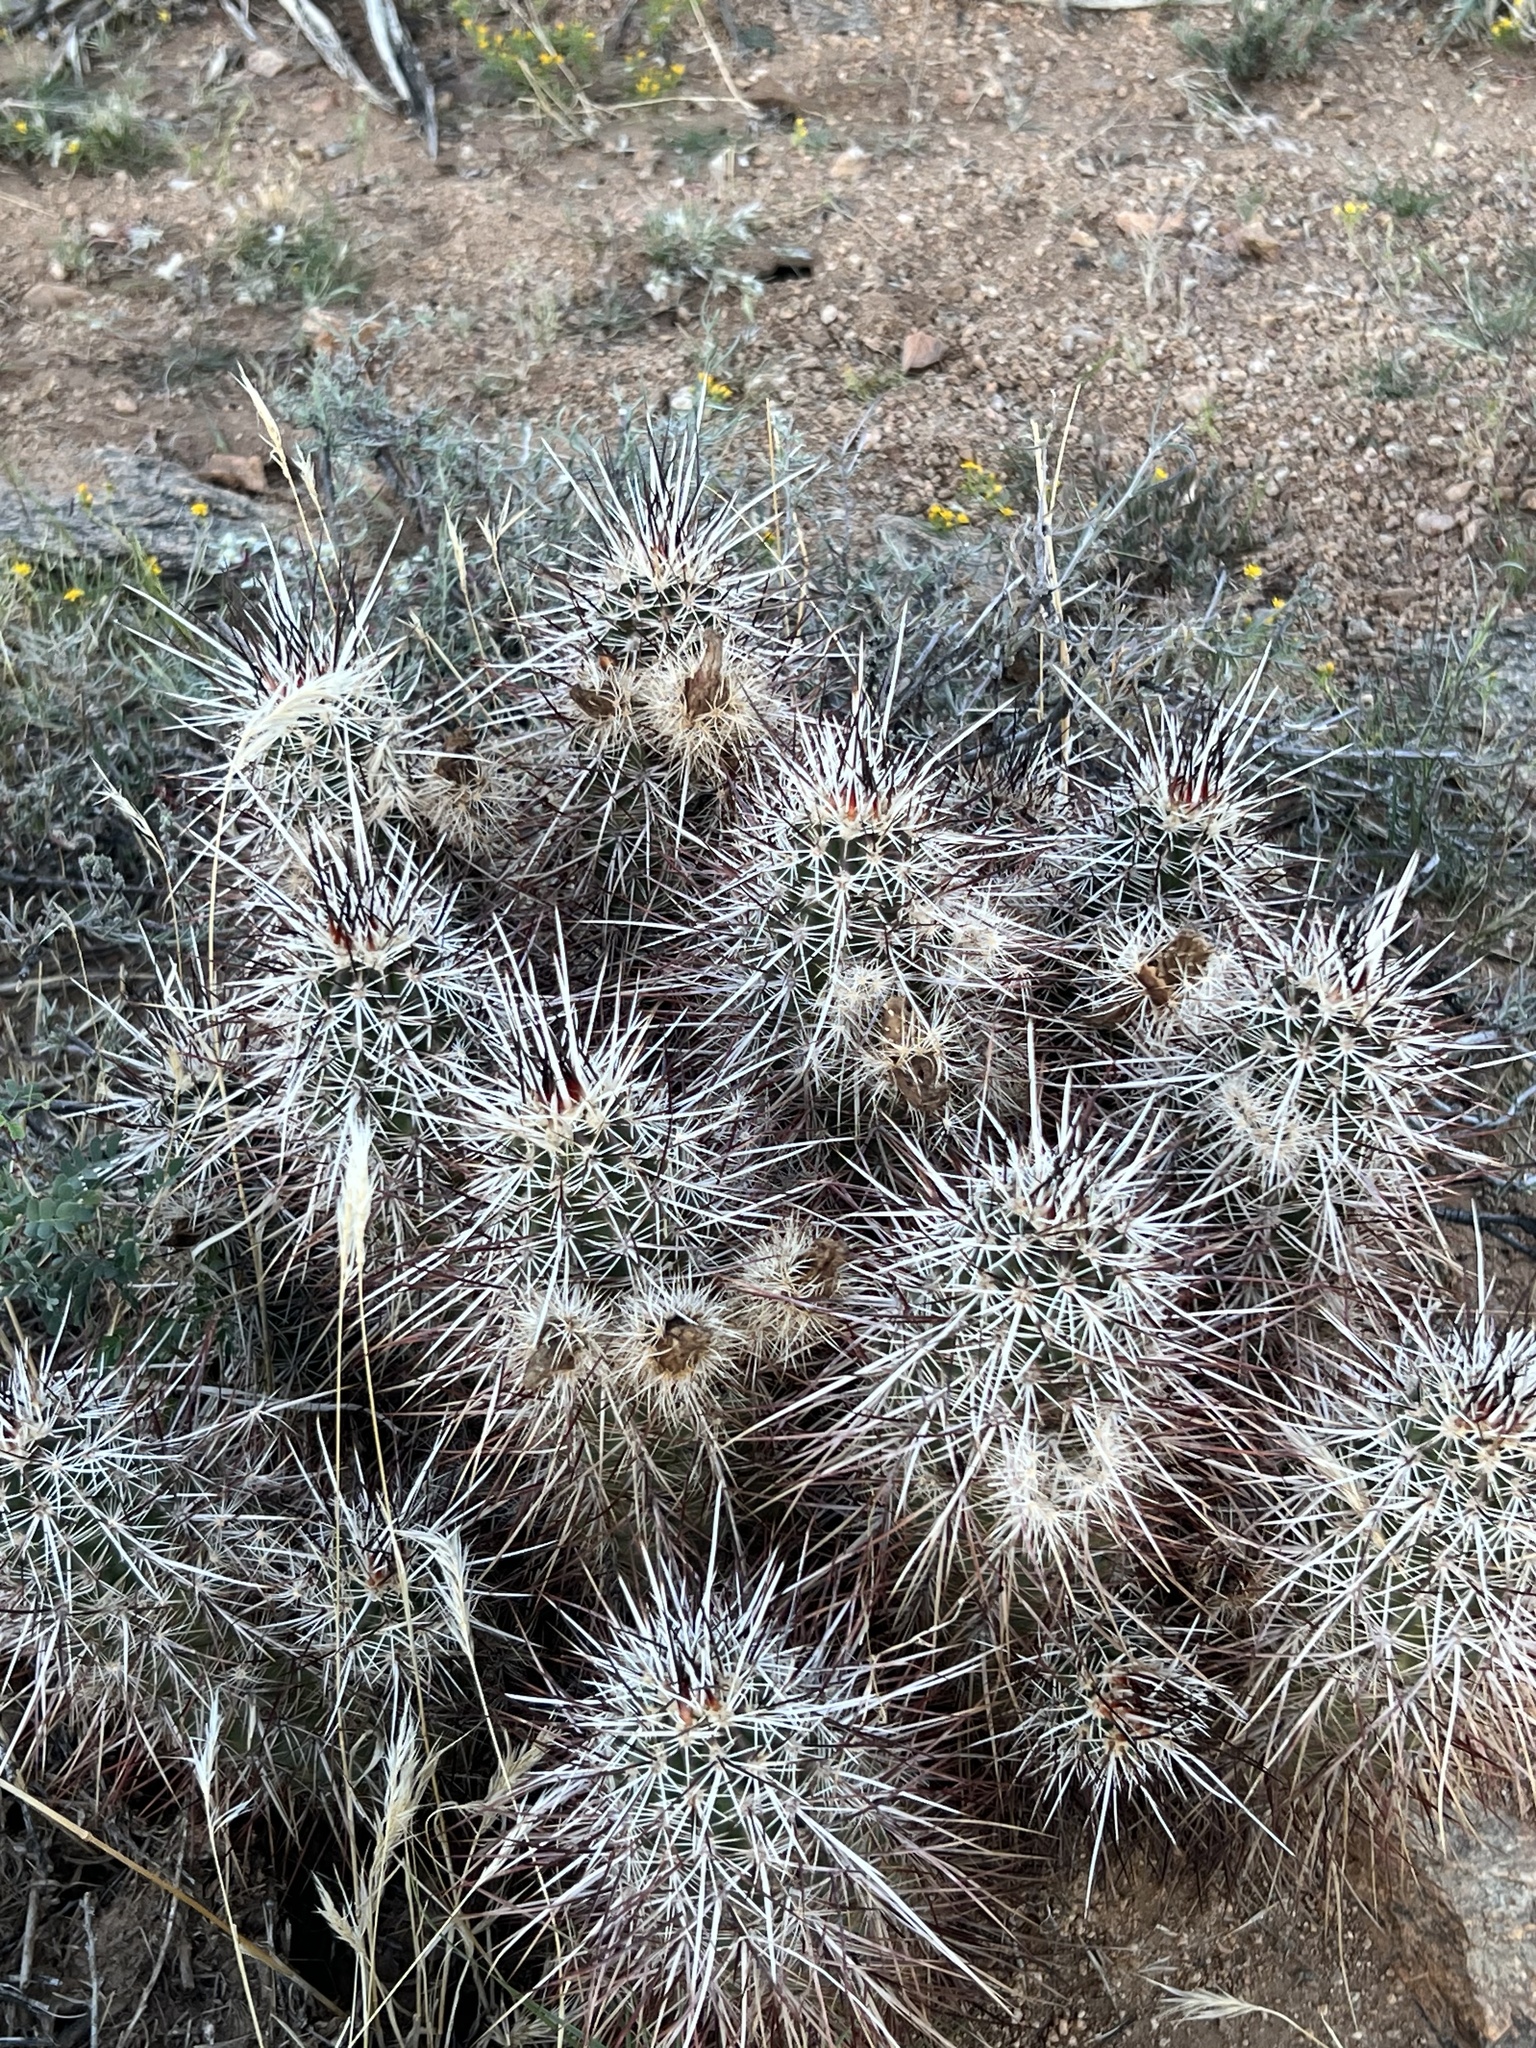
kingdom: Plantae
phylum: Tracheophyta
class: Magnoliopsida
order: Caryophyllales
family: Cactaceae
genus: Echinocereus
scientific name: Echinocereus engelmannii
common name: Engelmann's hedgehog cactus
